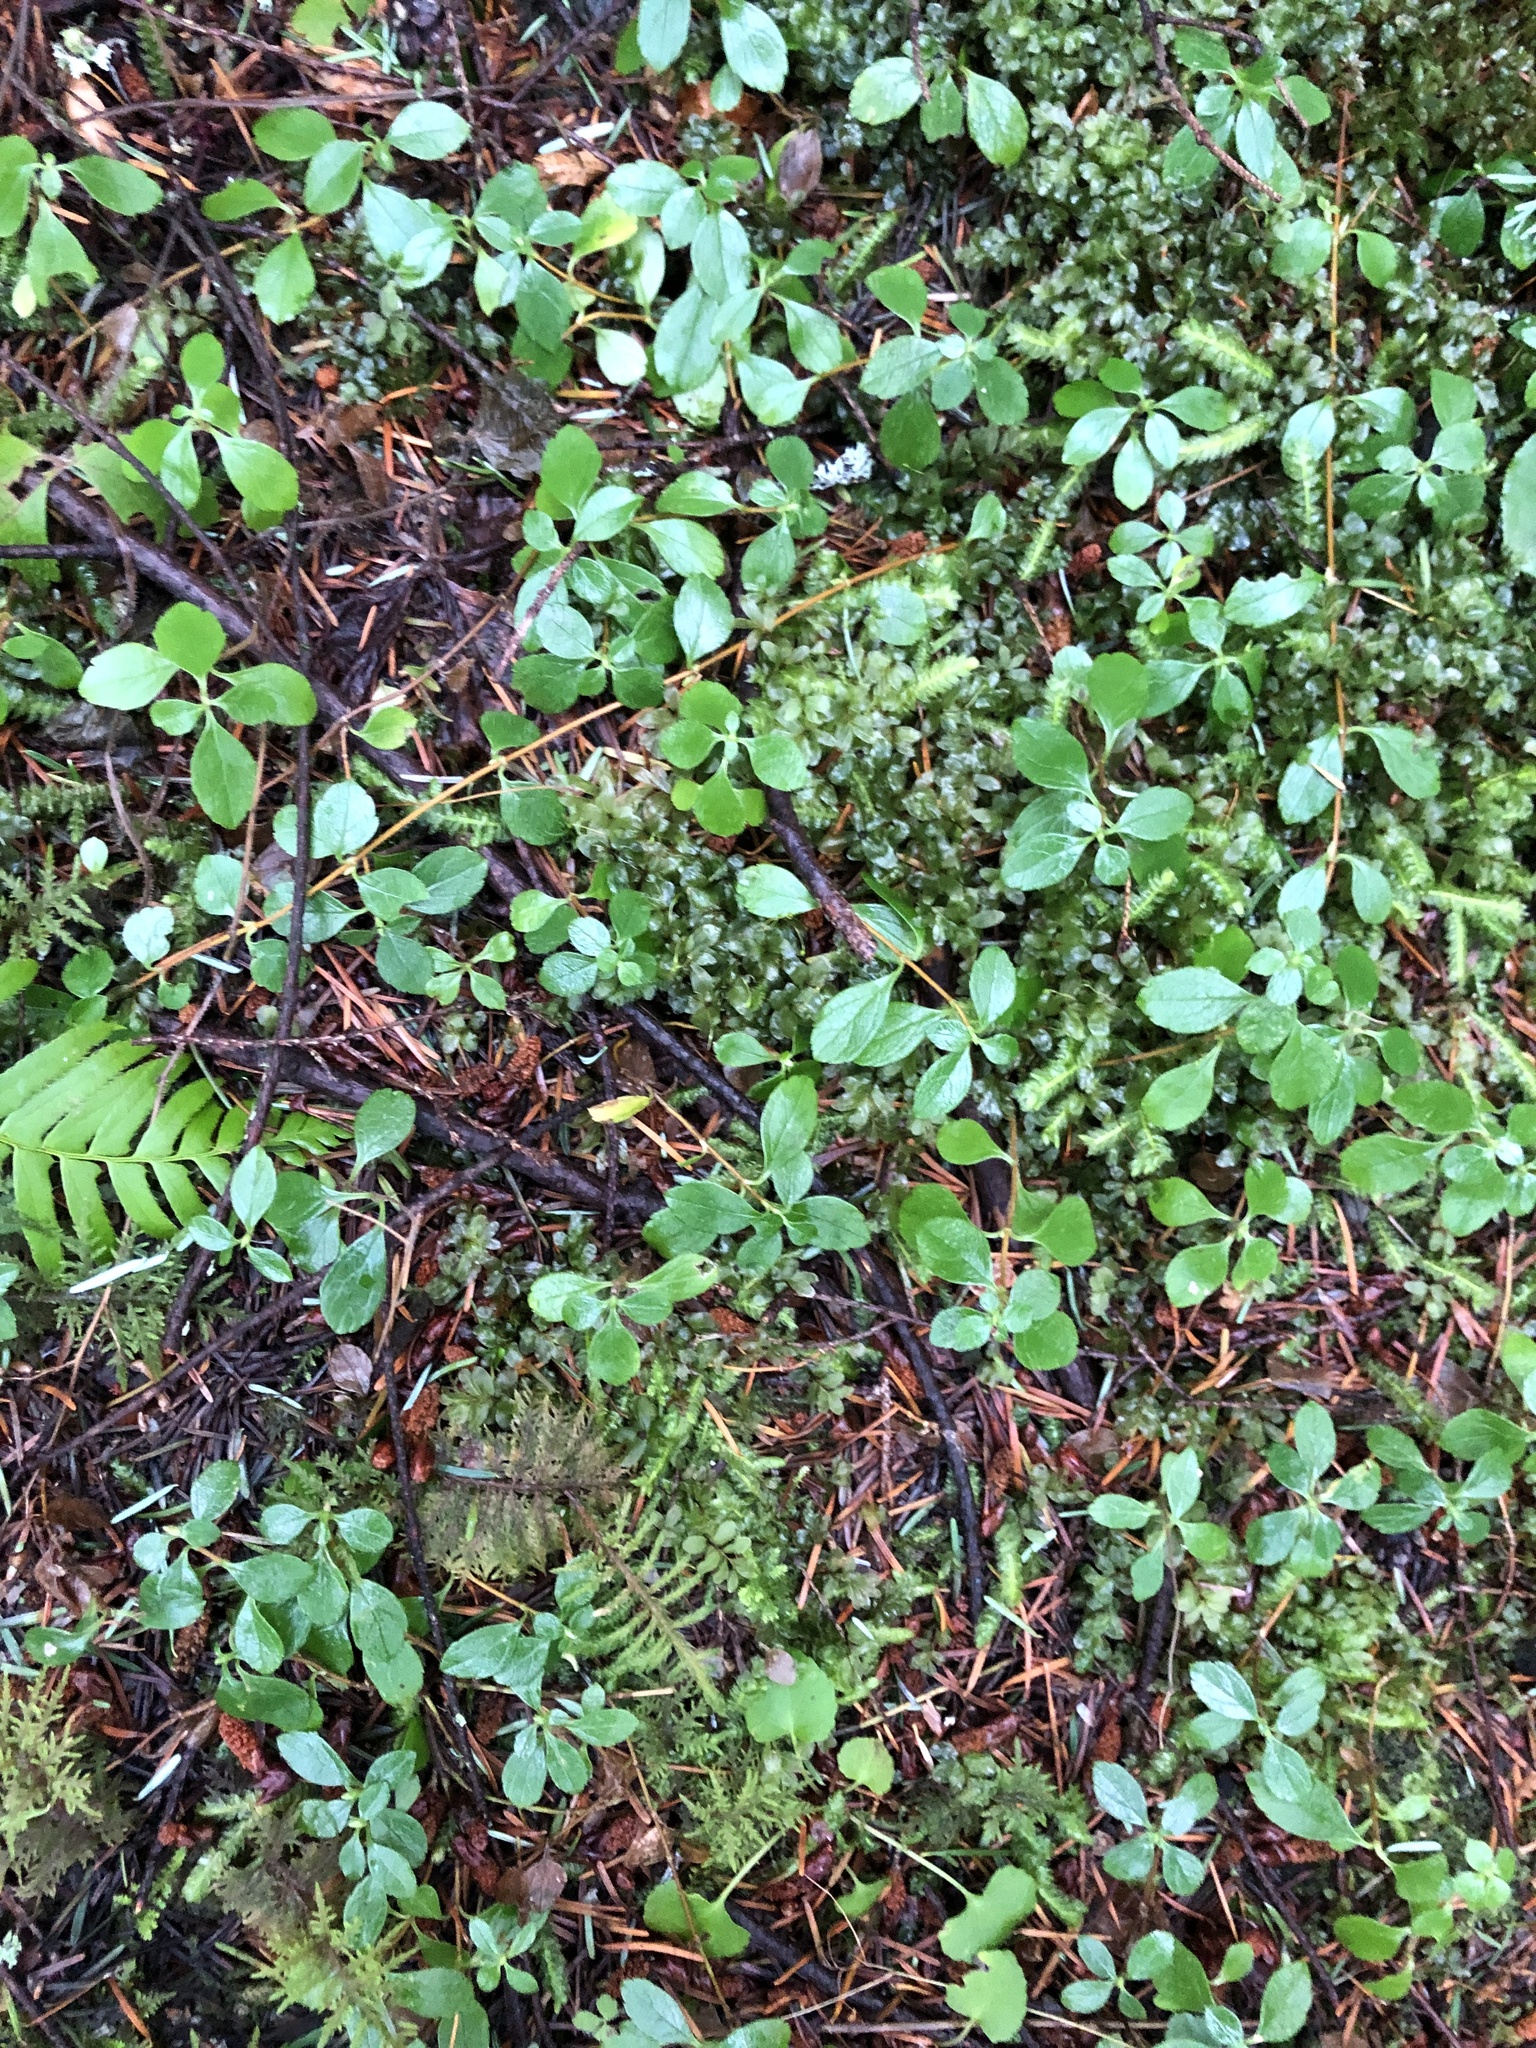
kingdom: Plantae
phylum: Tracheophyta
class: Magnoliopsida
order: Dipsacales
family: Caprifoliaceae
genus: Linnaea
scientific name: Linnaea borealis
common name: Twinflower
